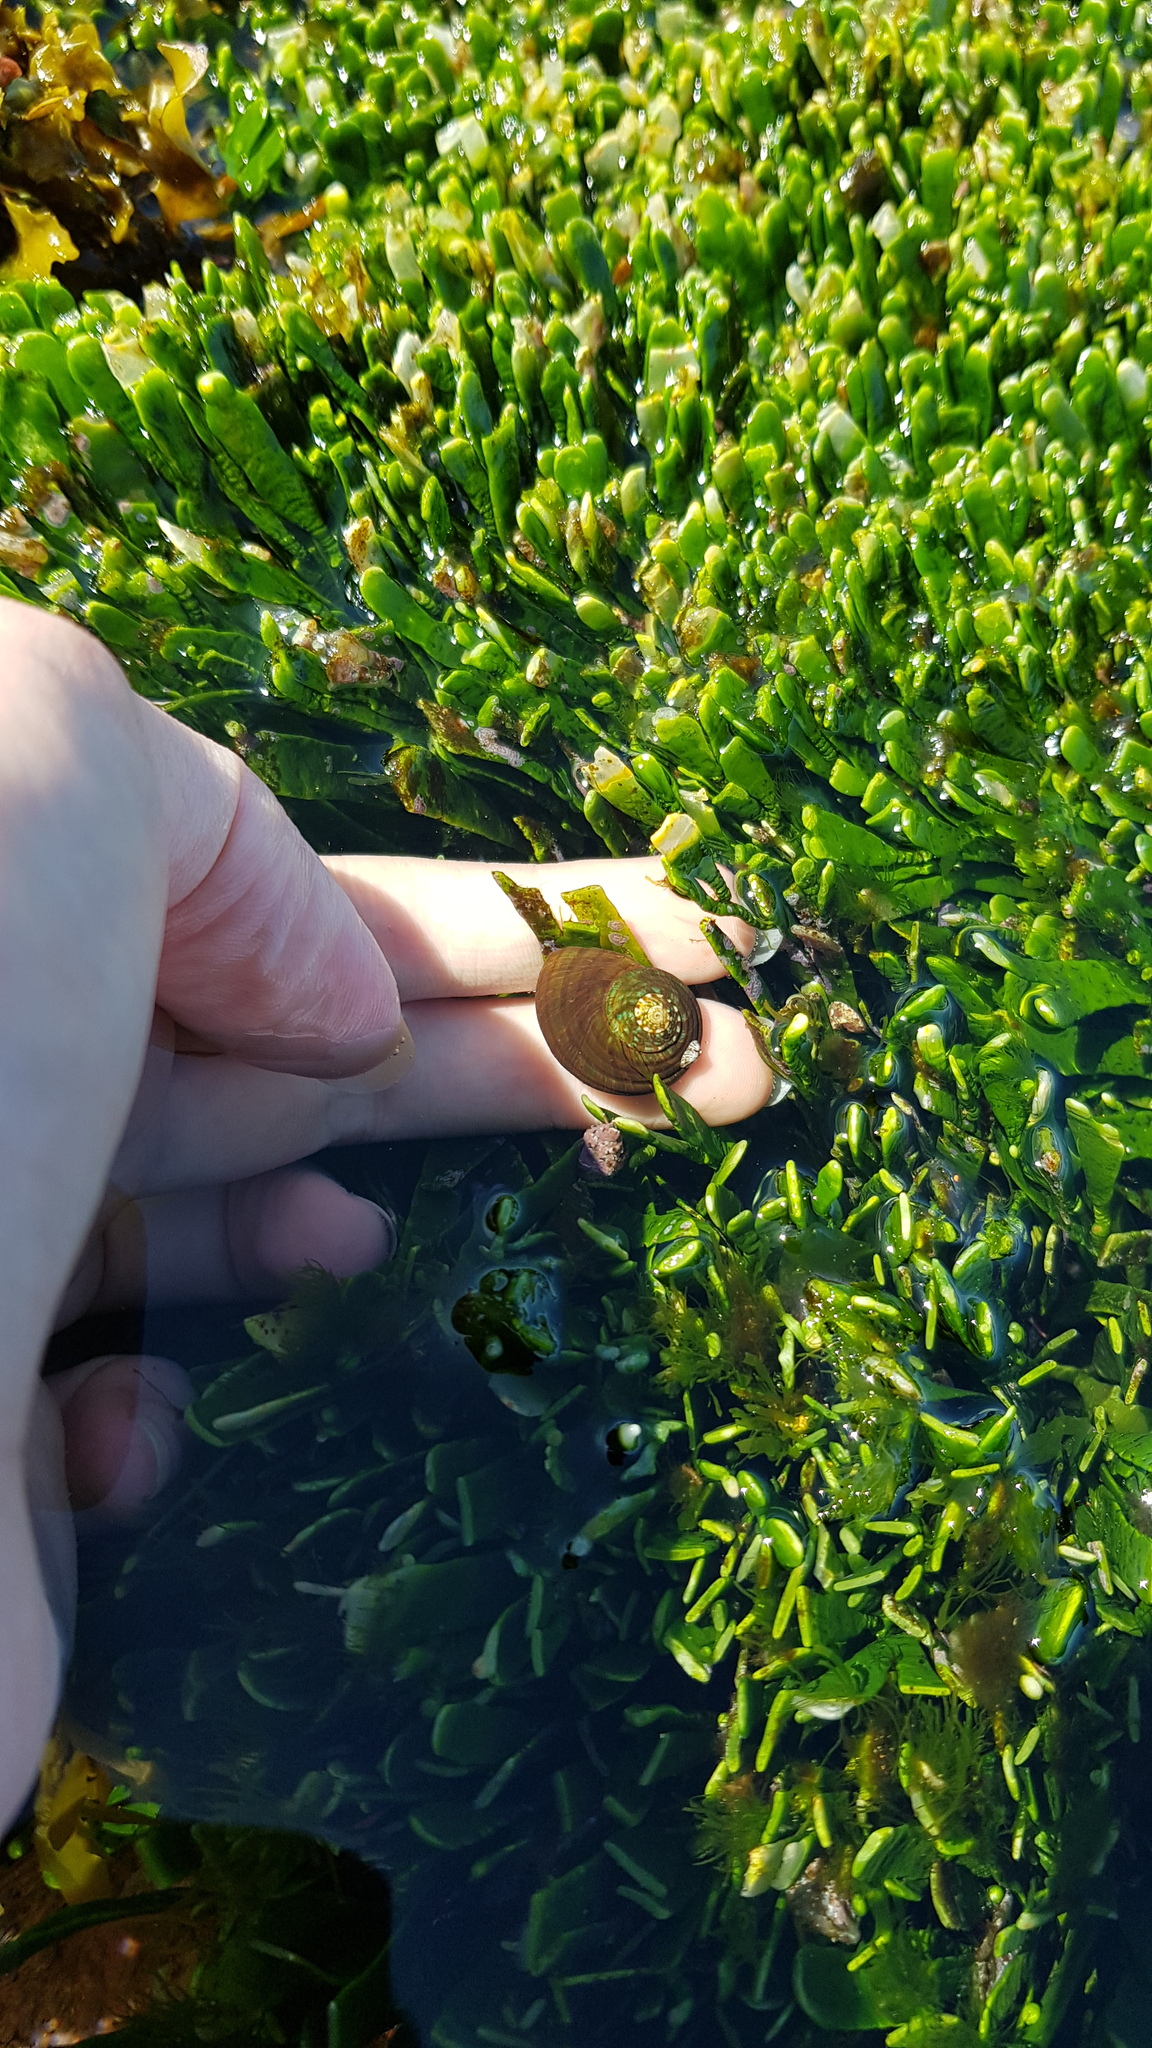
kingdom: Animalia
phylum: Mollusca
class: Gastropoda
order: Trochida
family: Turbinidae
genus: Lunella
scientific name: Lunella undulata
